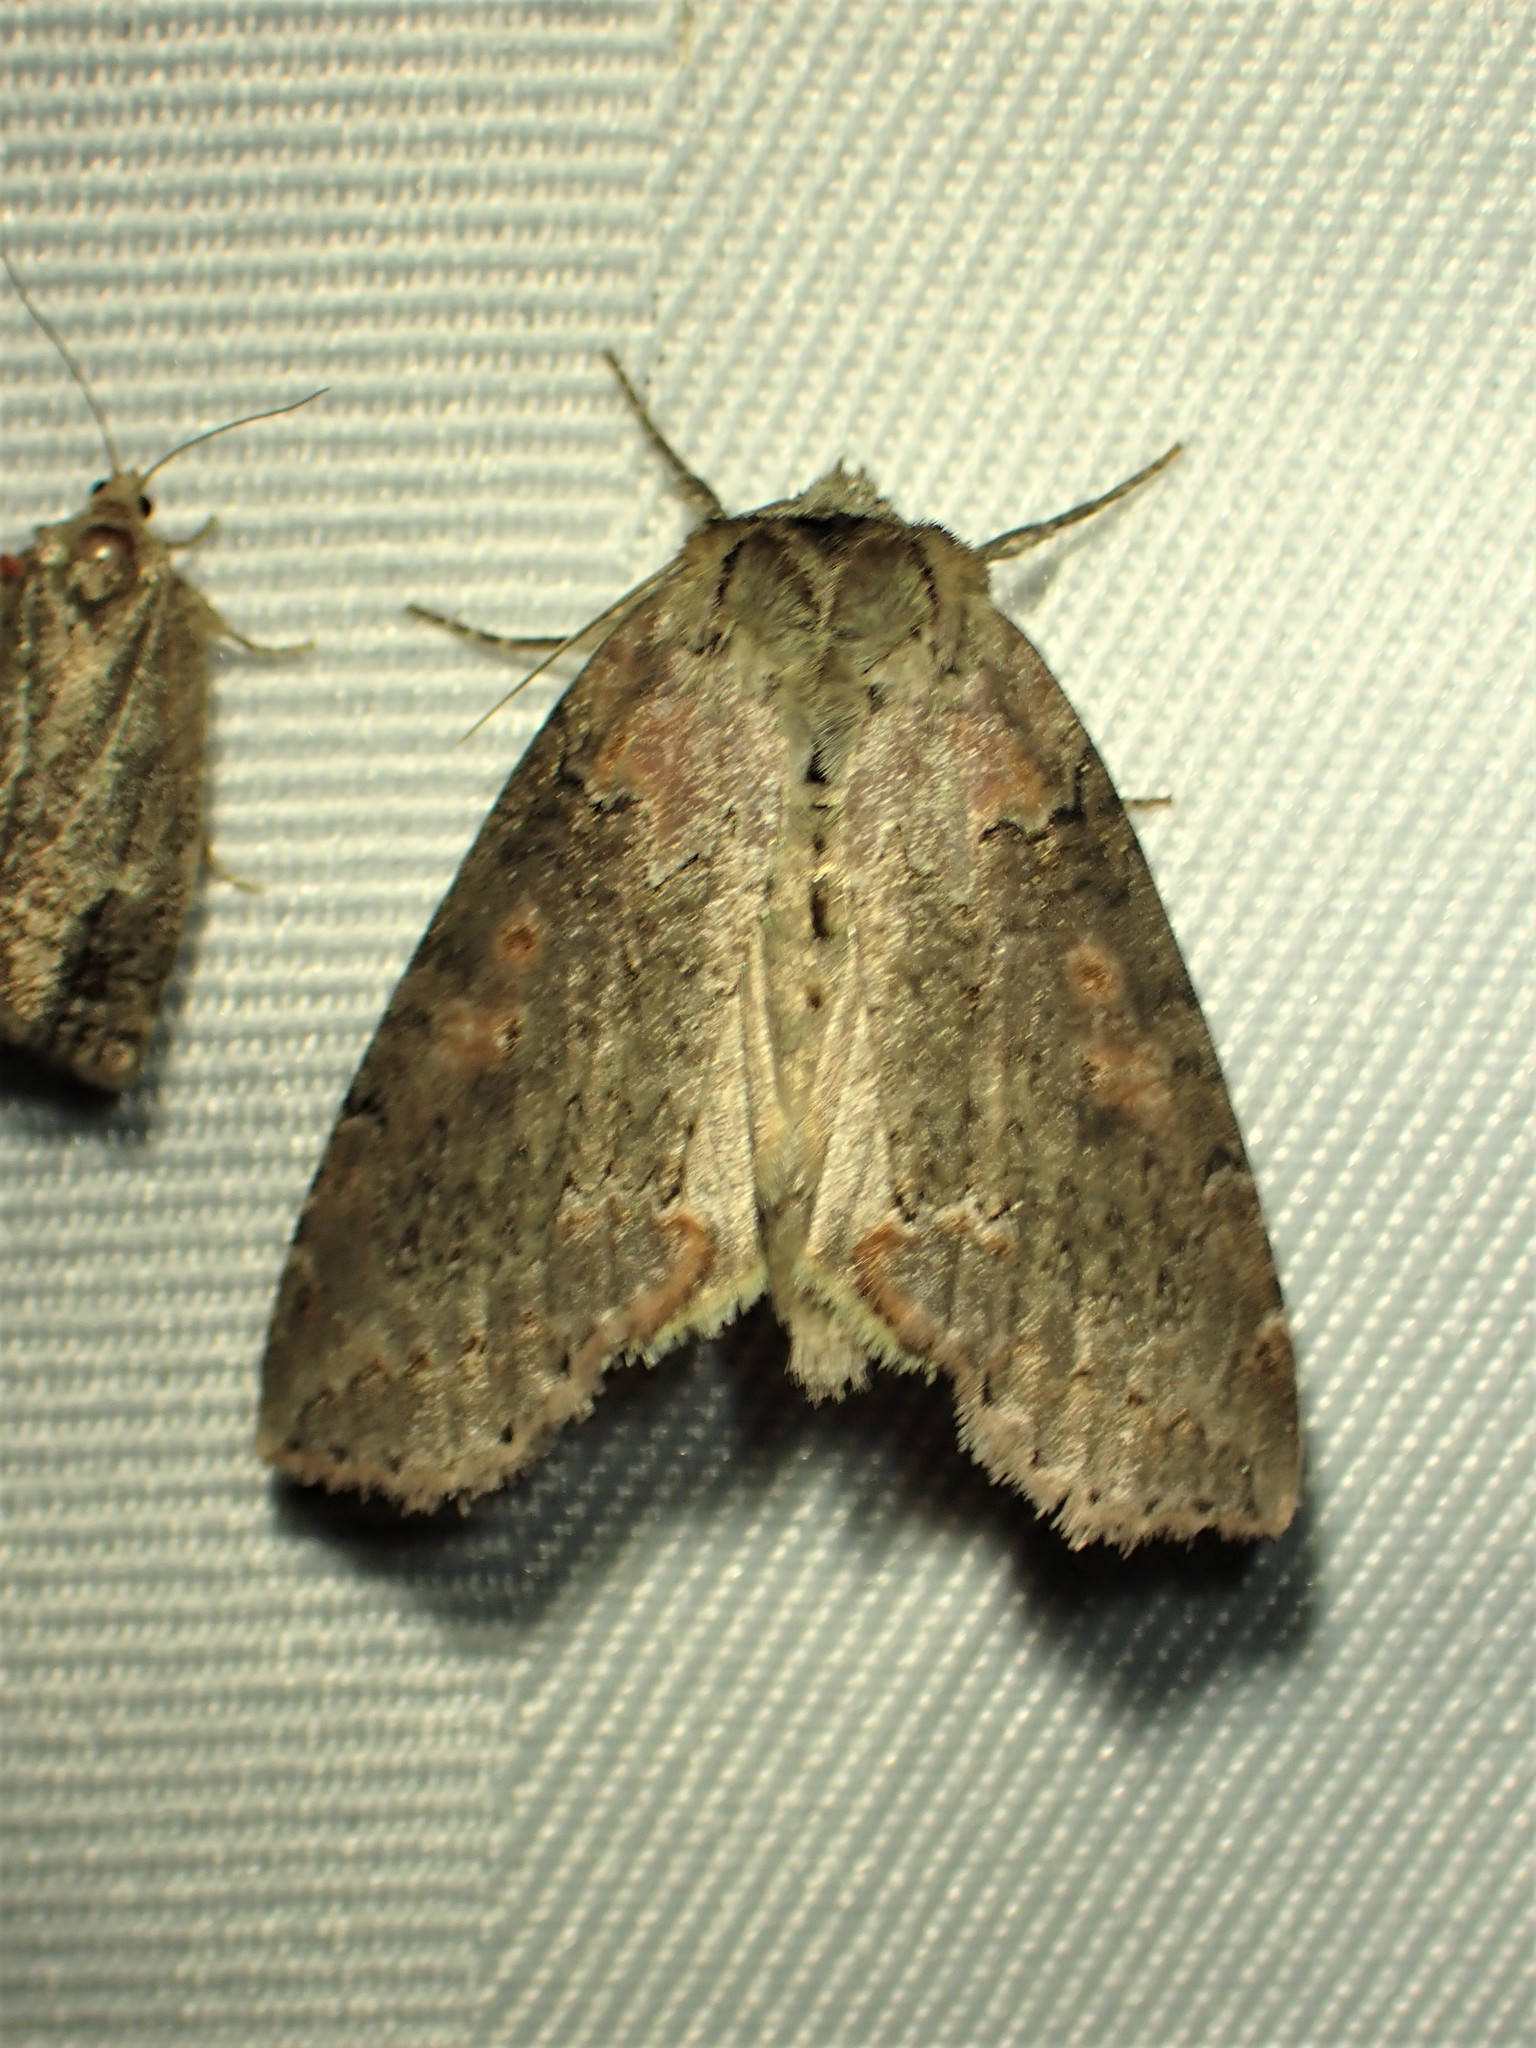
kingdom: Animalia
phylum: Arthropoda
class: Insecta
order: Lepidoptera
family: Drepanidae
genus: Pseudothyatira
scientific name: Pseudothyatira cymatophoroides
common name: Tufted thyatirid moth
